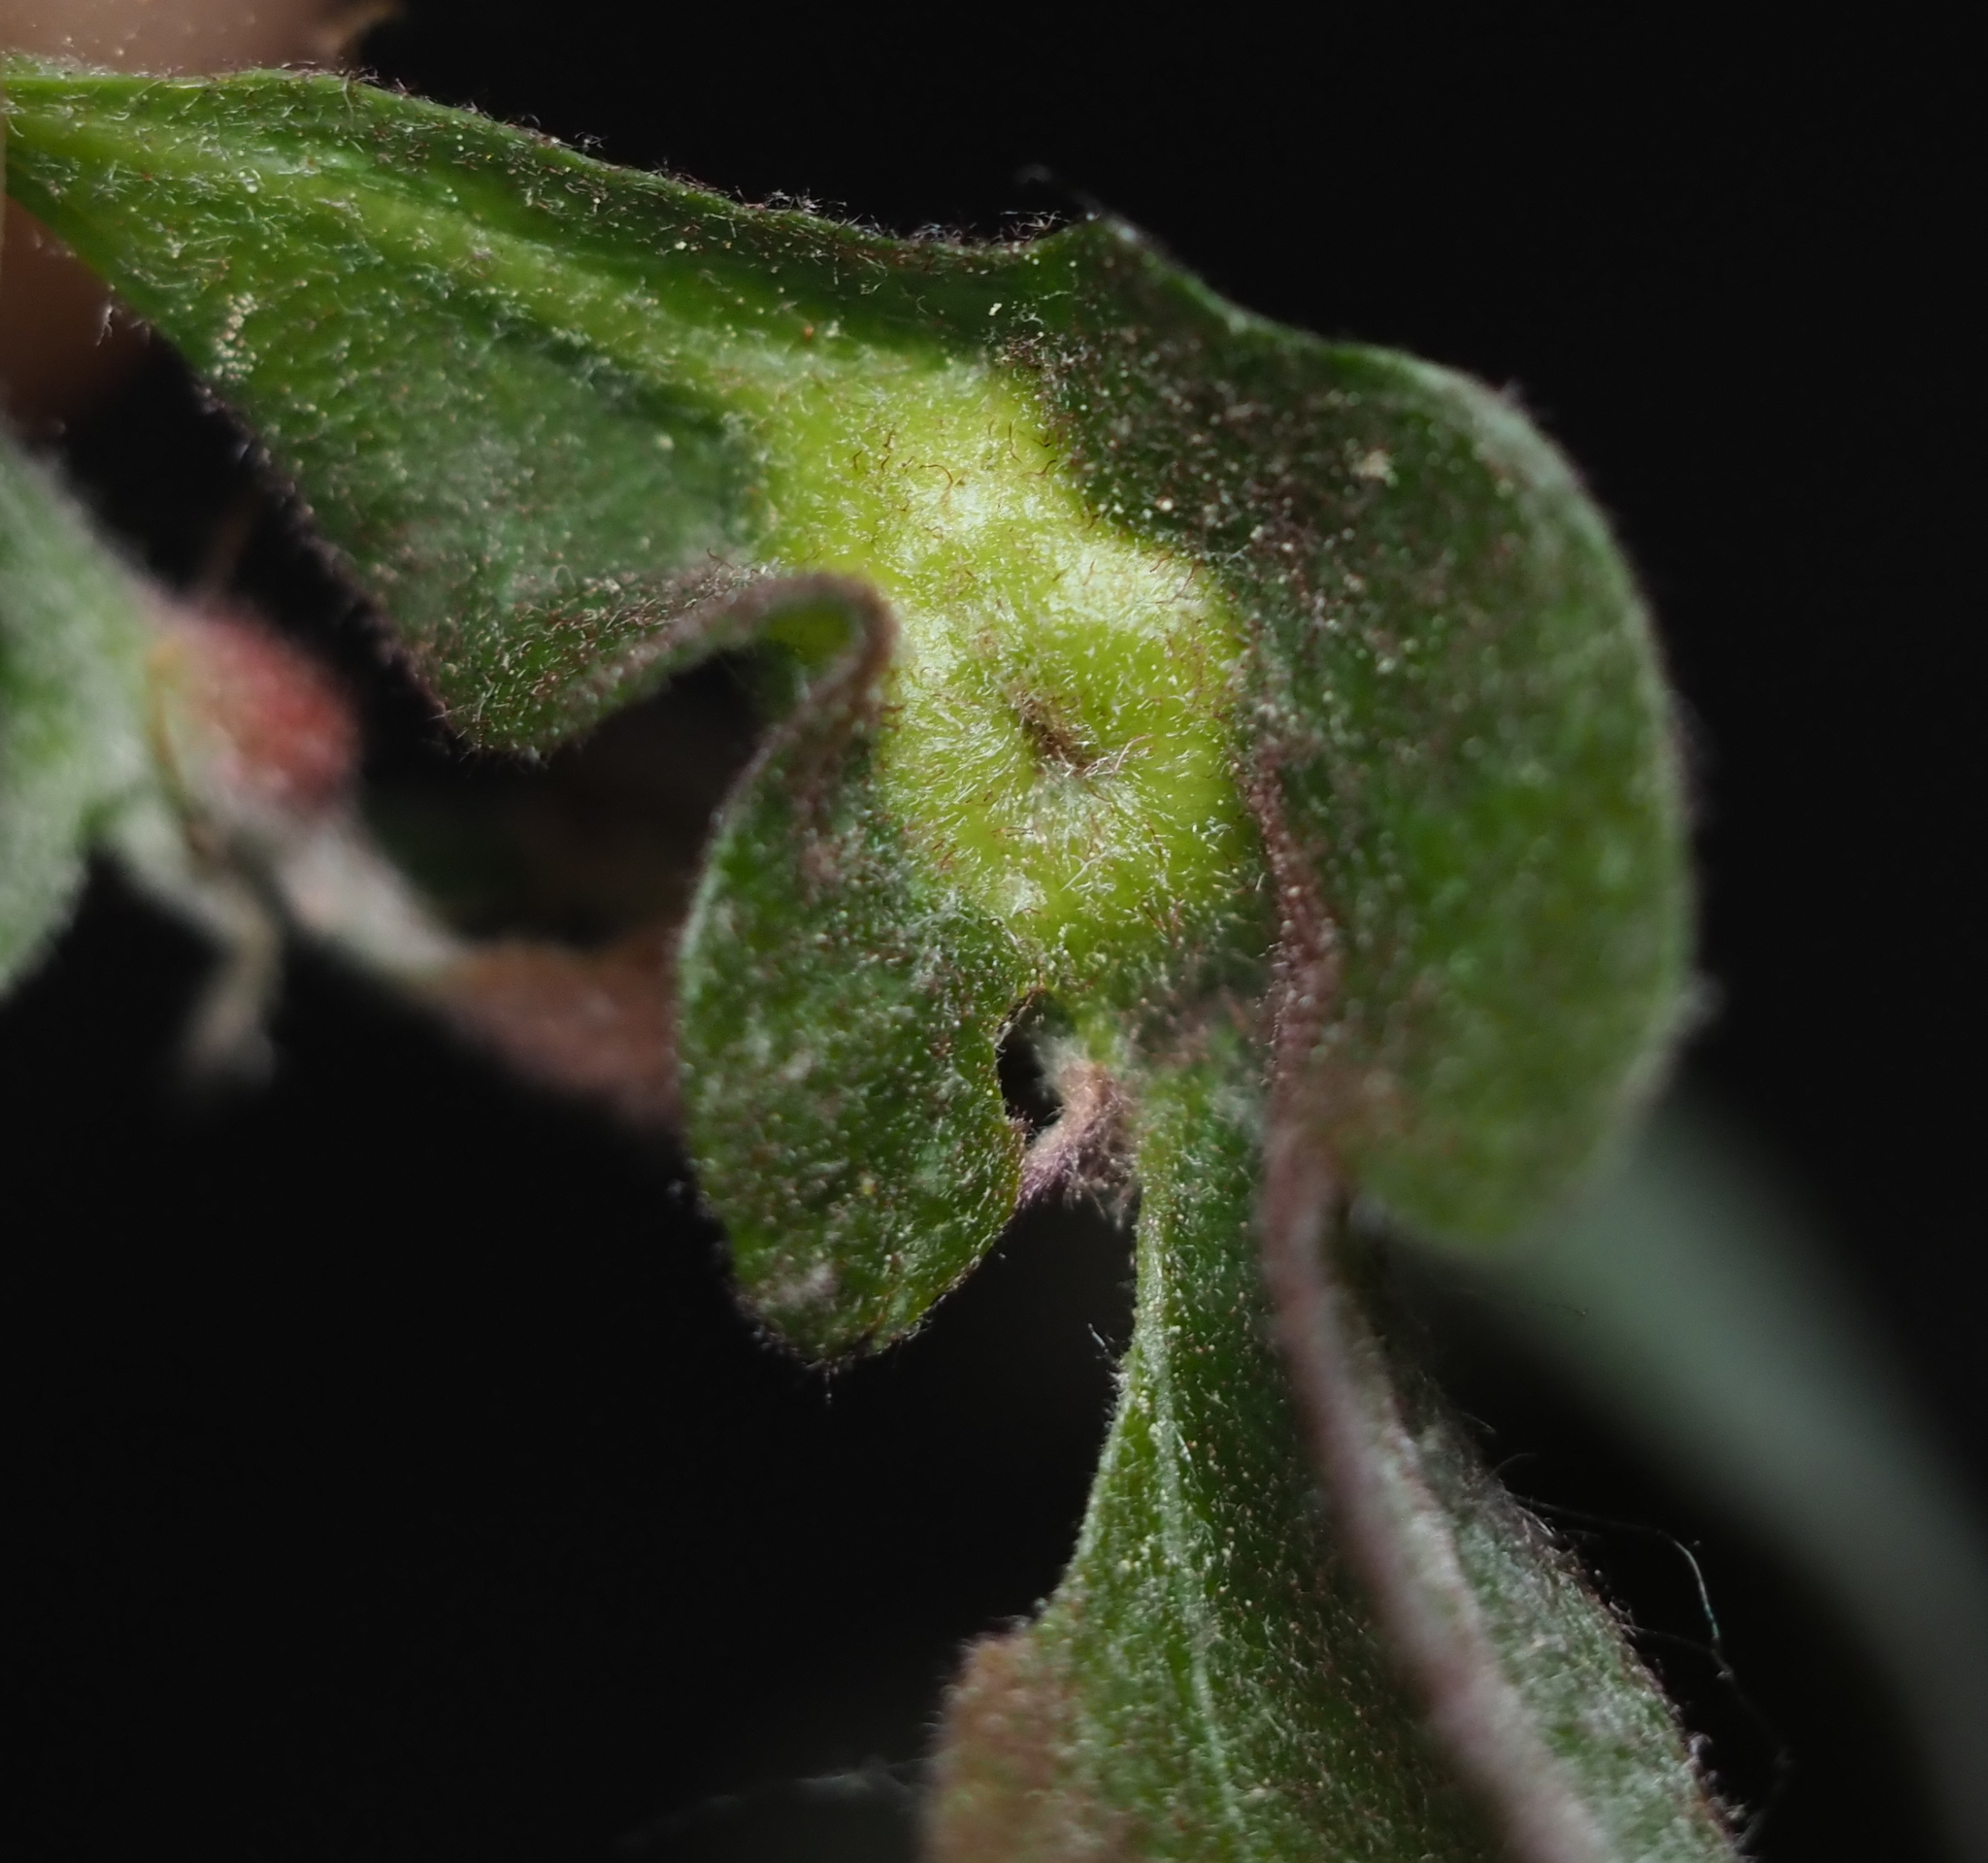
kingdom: Animalia
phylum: Arthropoda
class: Insecta
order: Hymenoptera
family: Cynipidae
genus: Andricus
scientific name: Andricus
